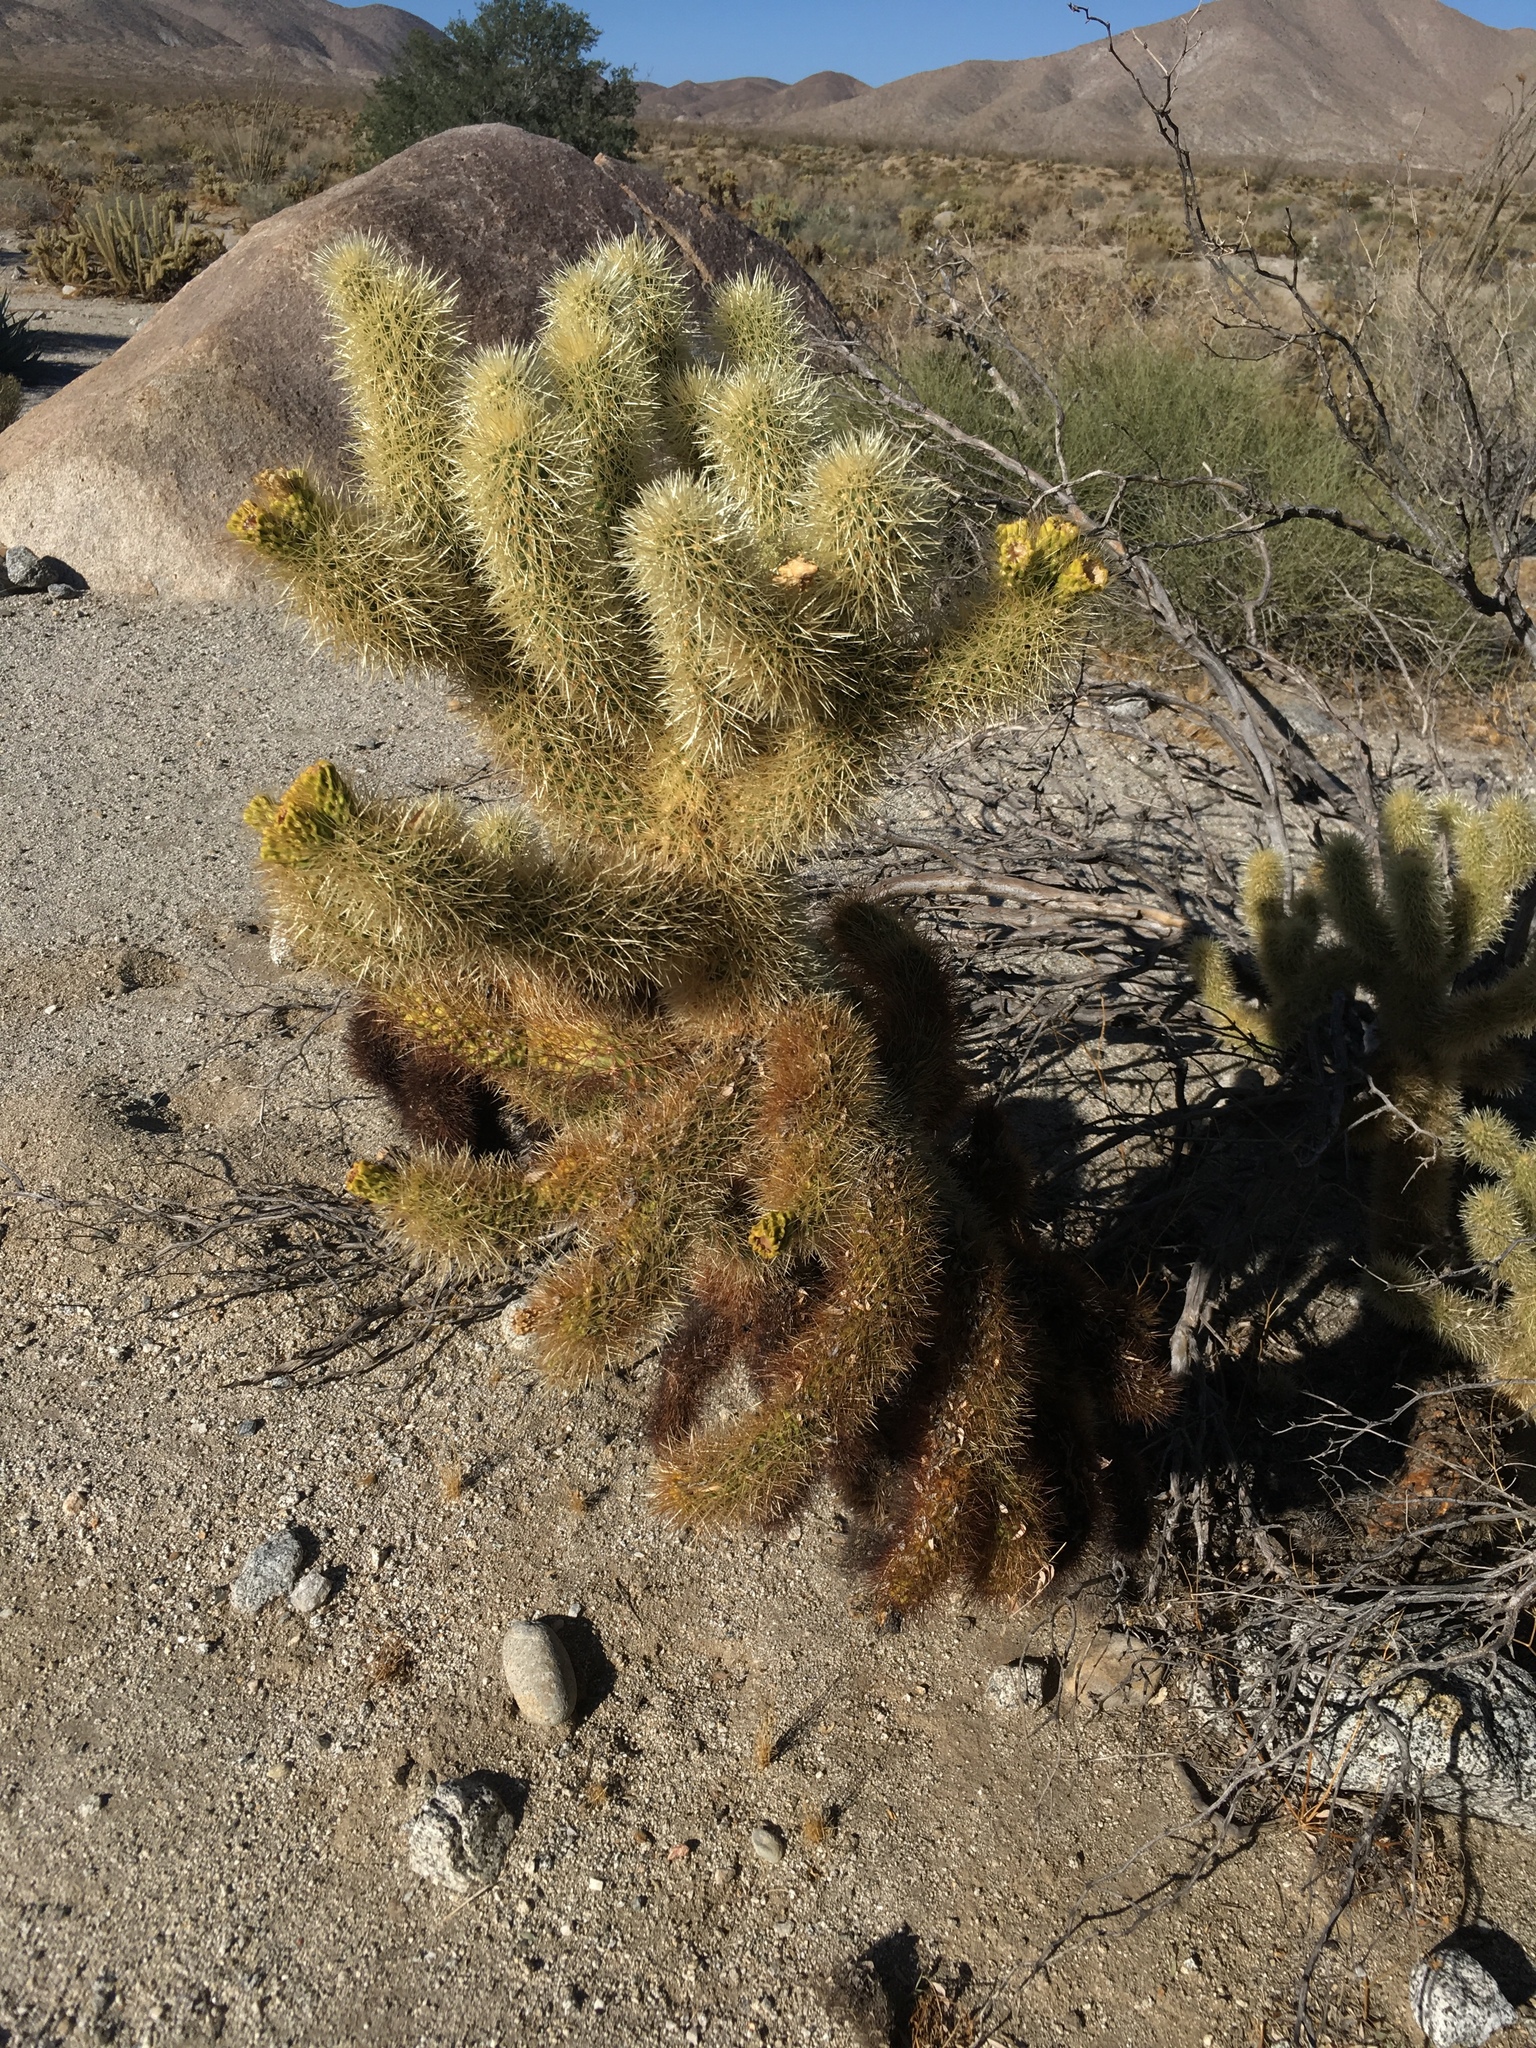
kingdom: Plantae
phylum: Tracheophyta
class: Magnoliopsida
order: Caryophyllales
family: Cactaceae
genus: Cylindropuntia
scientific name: Cylindropuntia fosbergii
